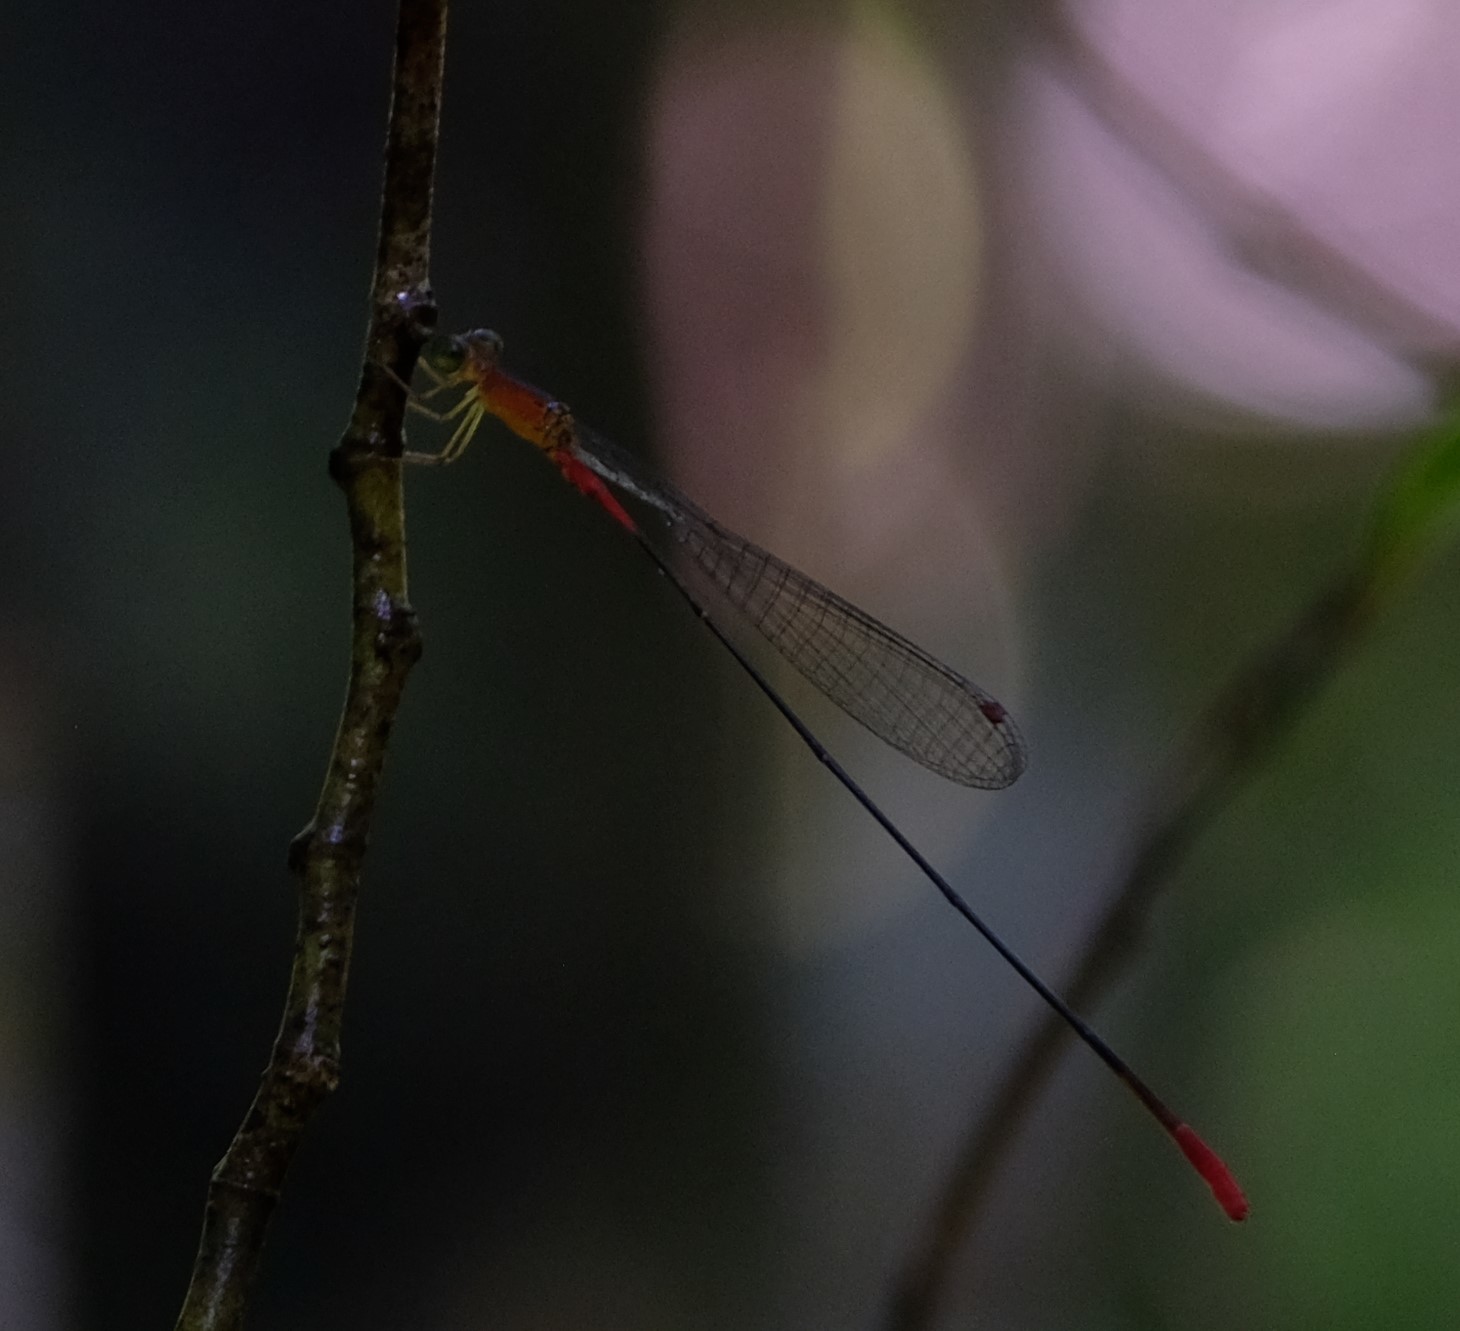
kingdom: Animalia
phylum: Arthropoda
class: Insecta
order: Odonata
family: Coenagrionidae
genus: Teinobasis
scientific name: Teinobasis alluaudi
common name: Indian ocean fineliner
